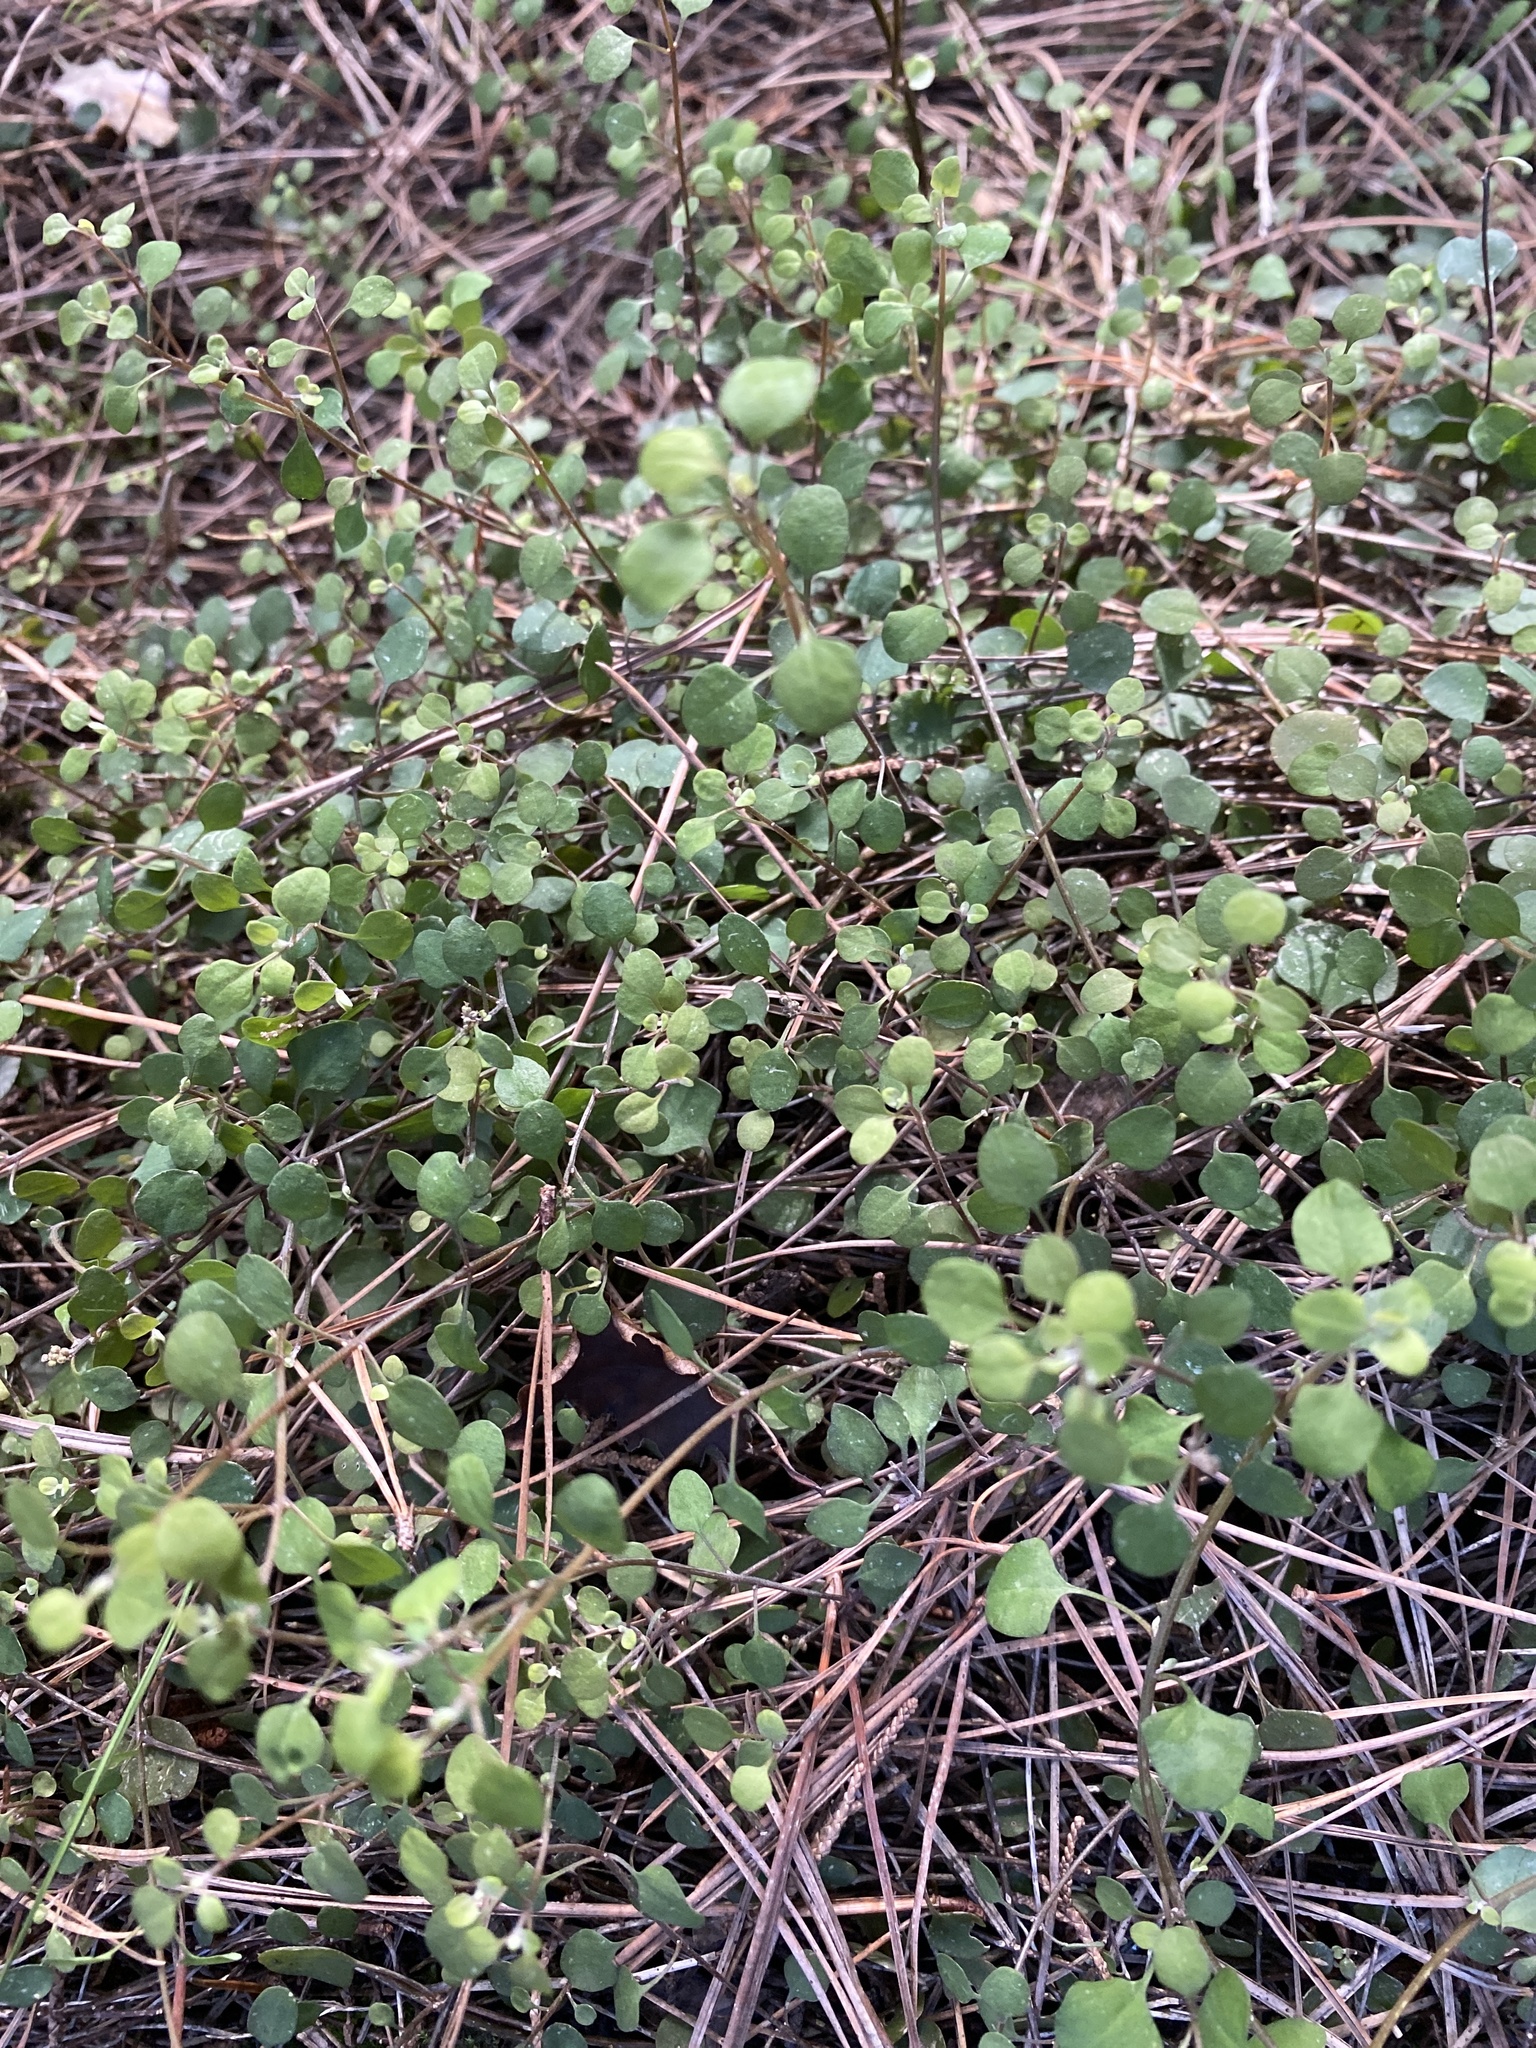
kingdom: Plantae
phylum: Tracheophyta
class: Magnoliopsida
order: Caryophyllales
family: Amaranthaceae
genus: Chenopodium
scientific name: Chenopodium allanii
